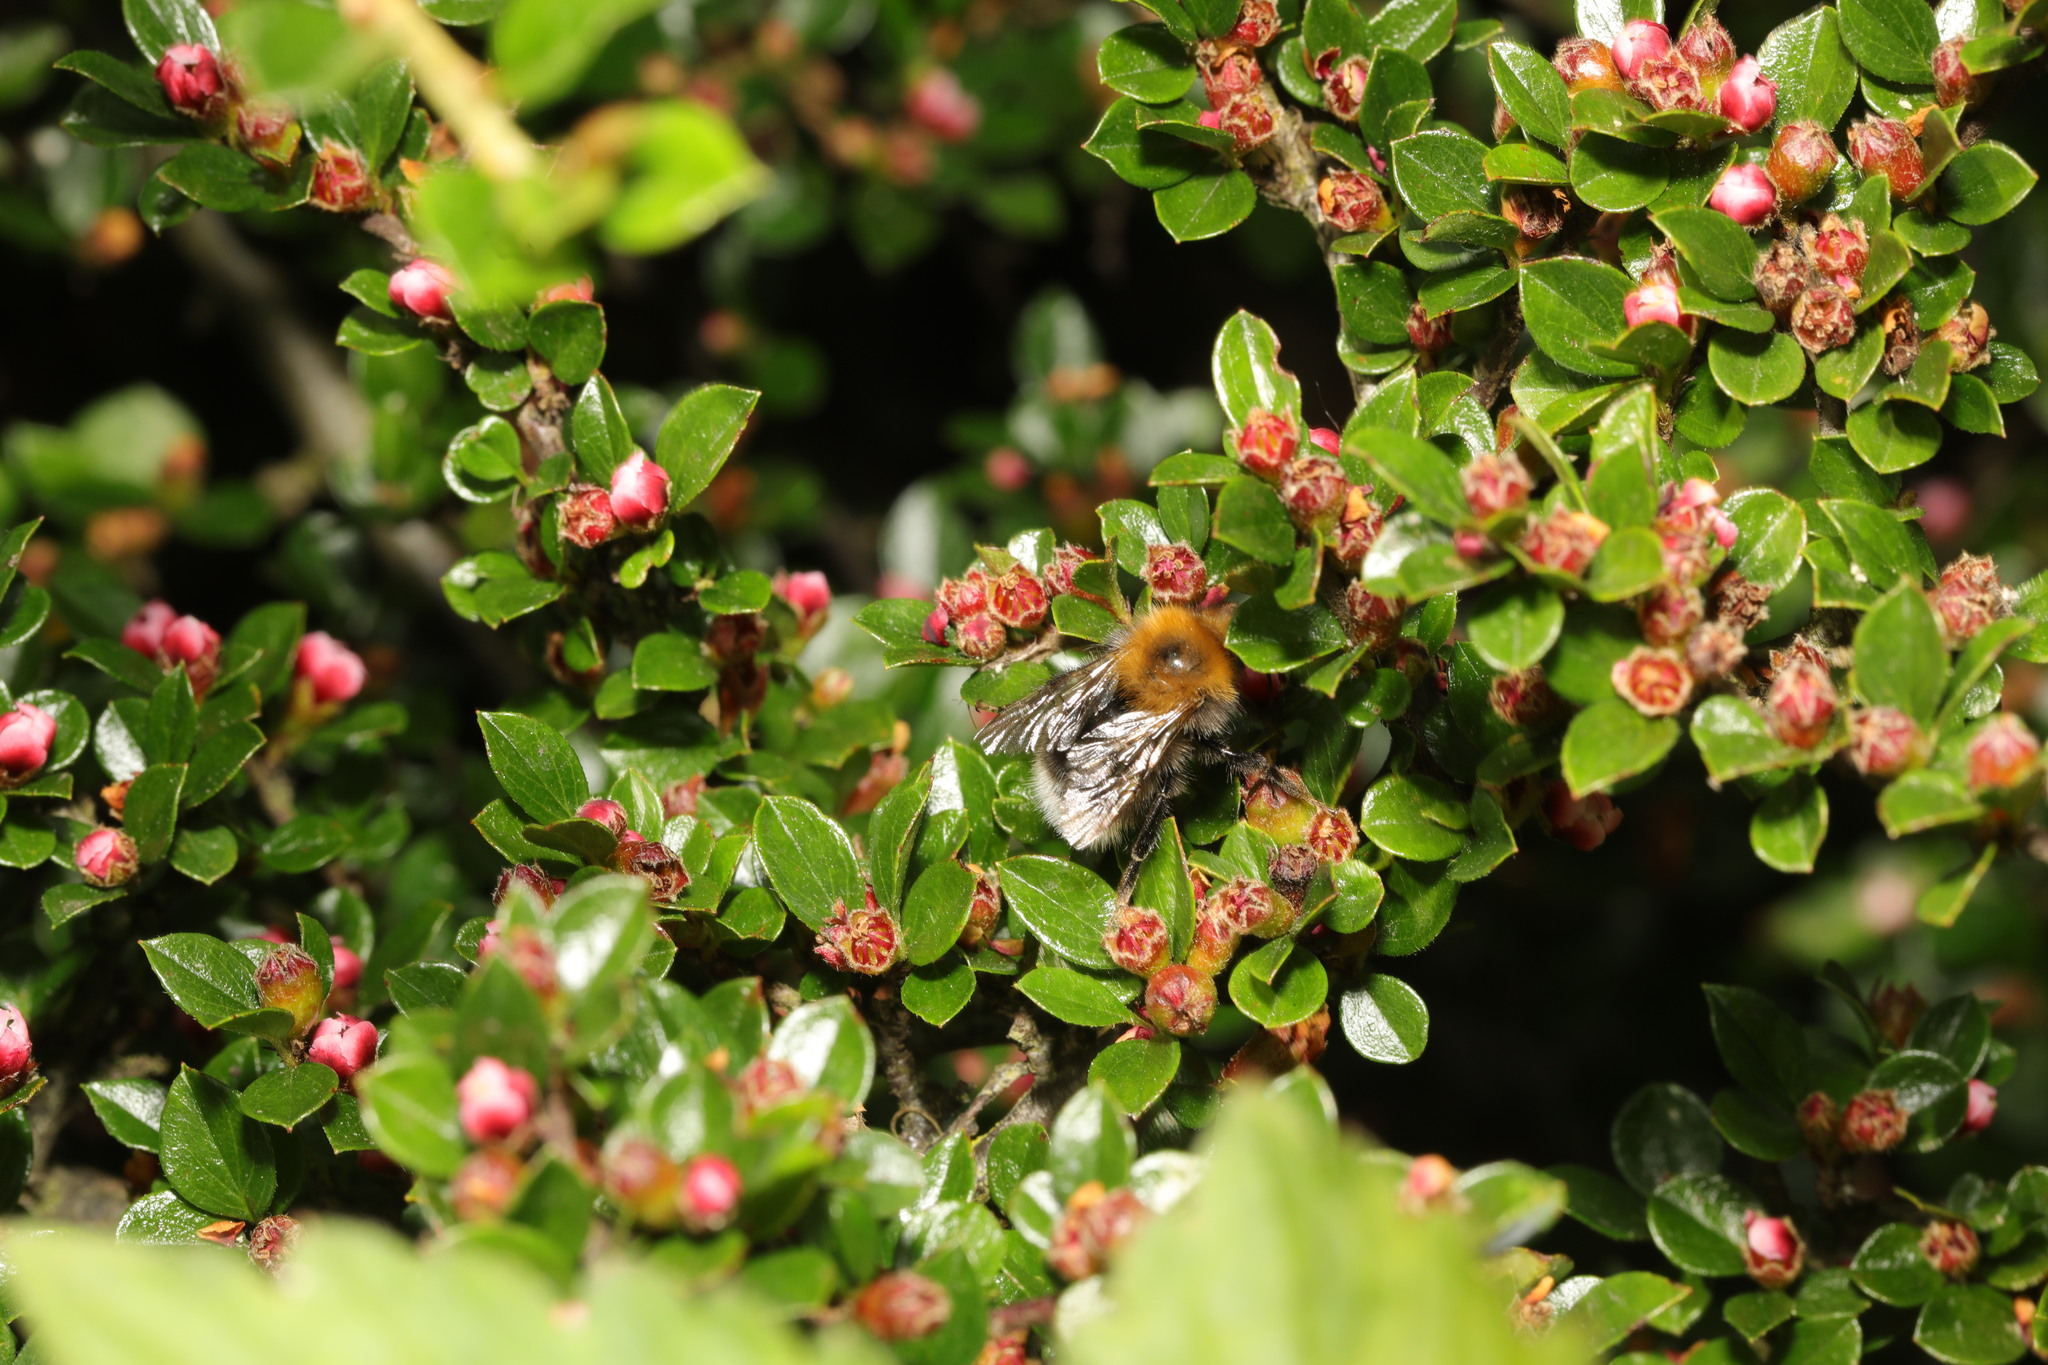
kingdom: Animalia
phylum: Arthropoda
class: Insecta
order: Hymenoptera
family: Apidae
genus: Bombus
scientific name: Bombus hypnorum
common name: New garden bumblebee
